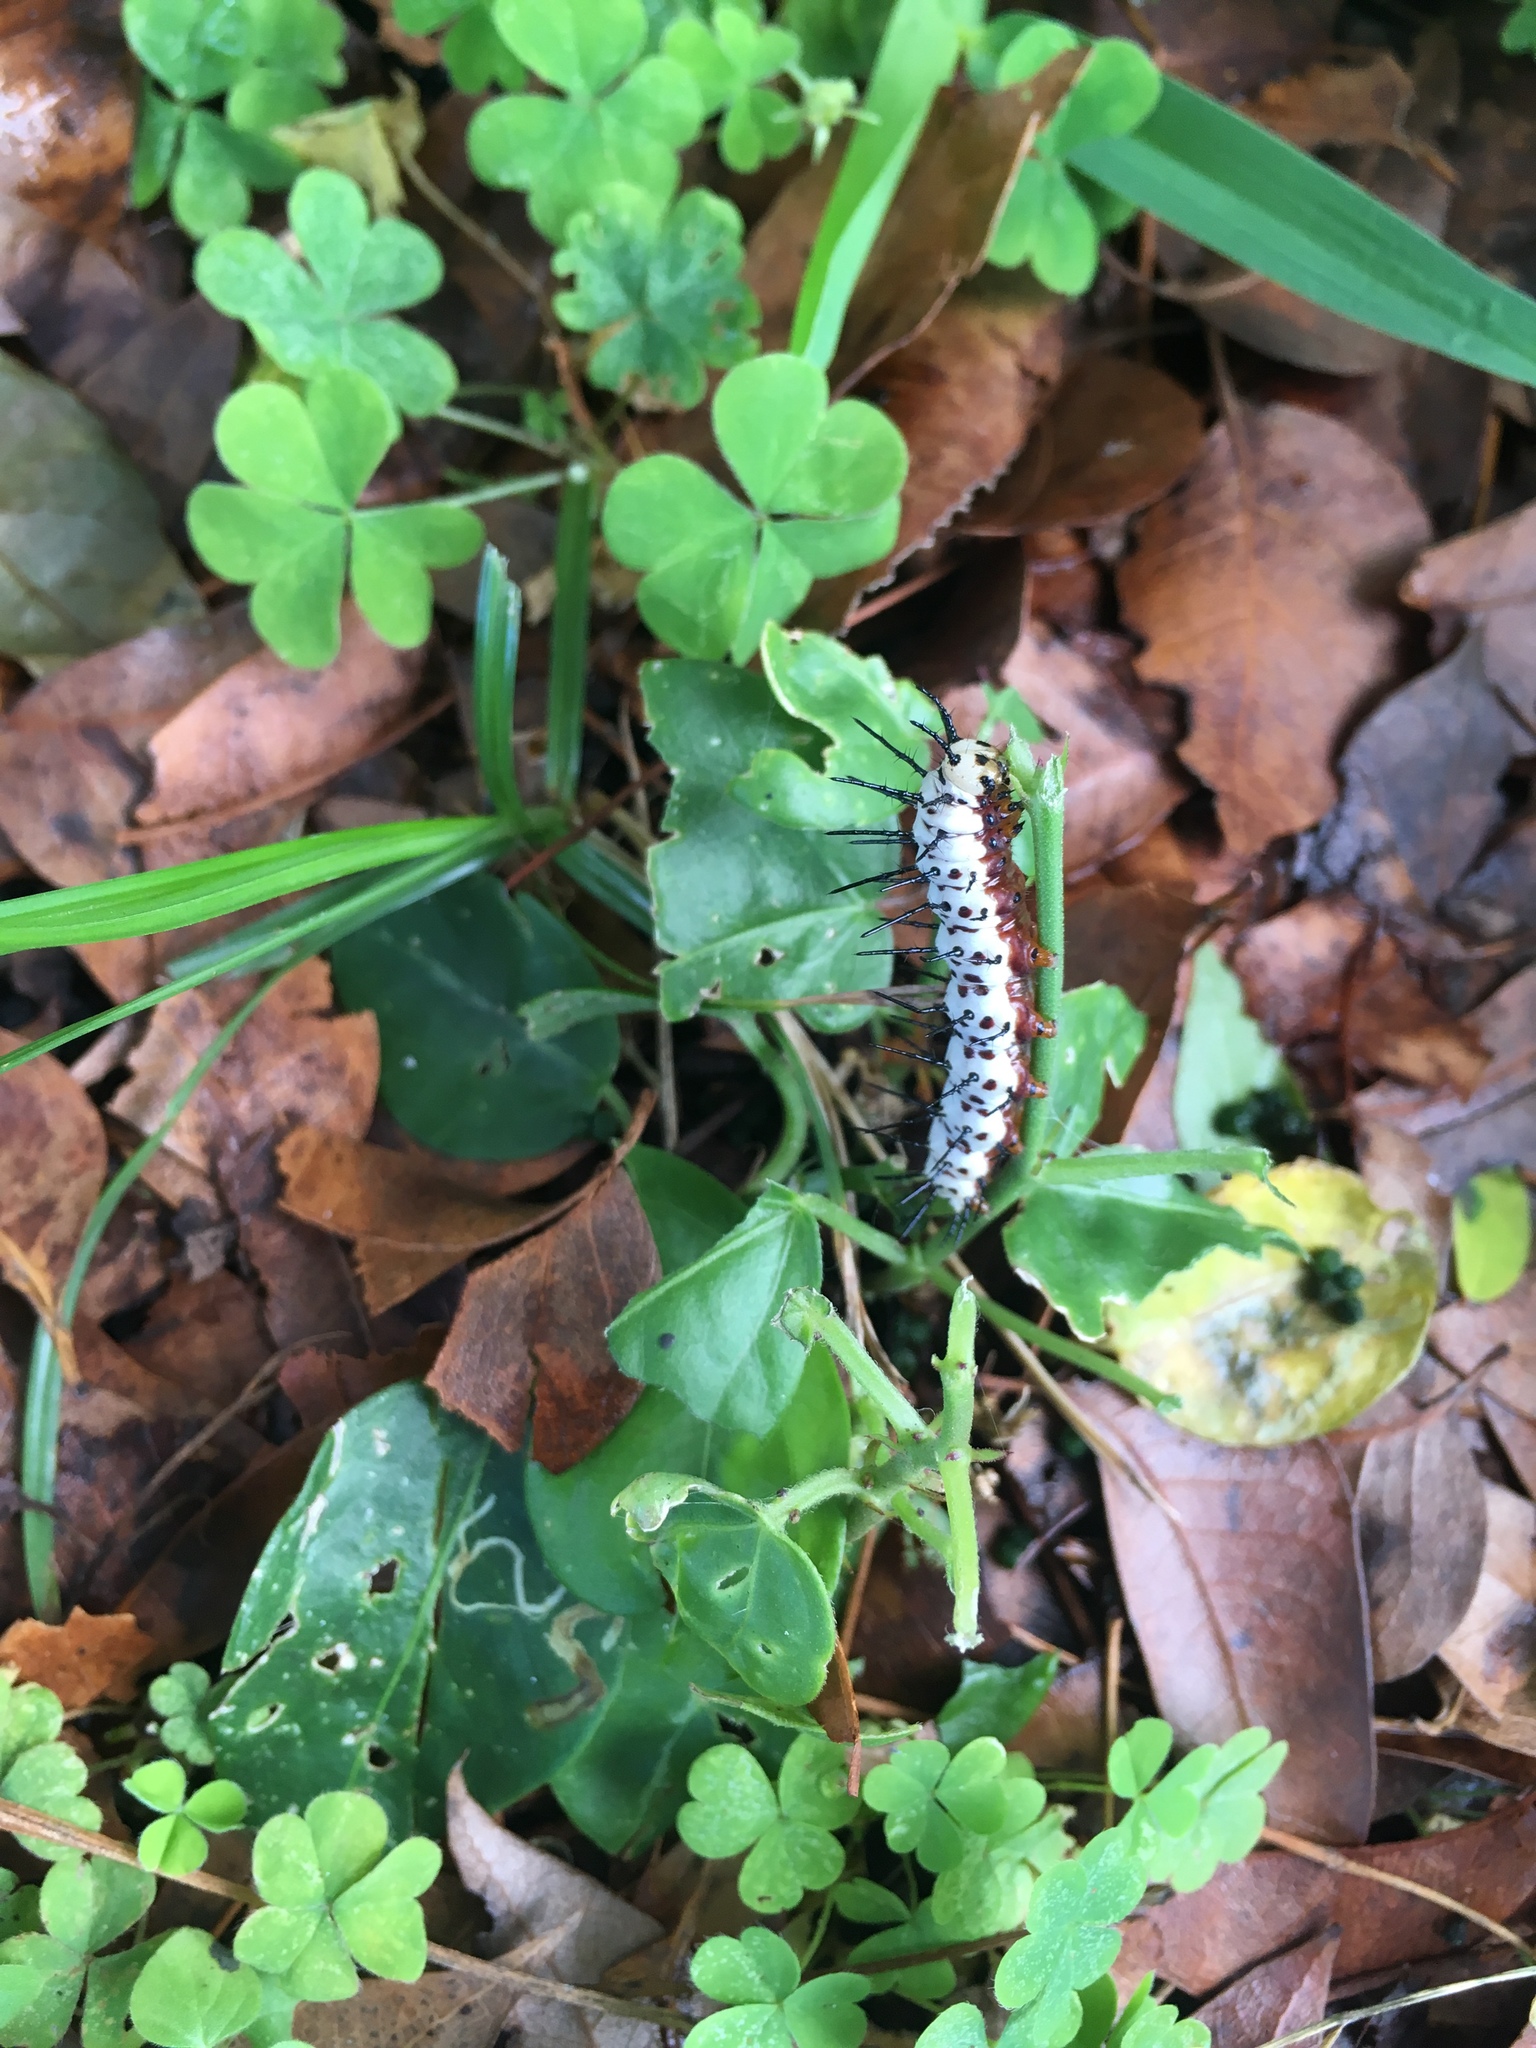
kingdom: Animalia
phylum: Arthropoda
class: Insecta
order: Lepidoptera
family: Nymphalidae
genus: Heliconius
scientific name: Heliconius charithonia
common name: Zebra long wing
